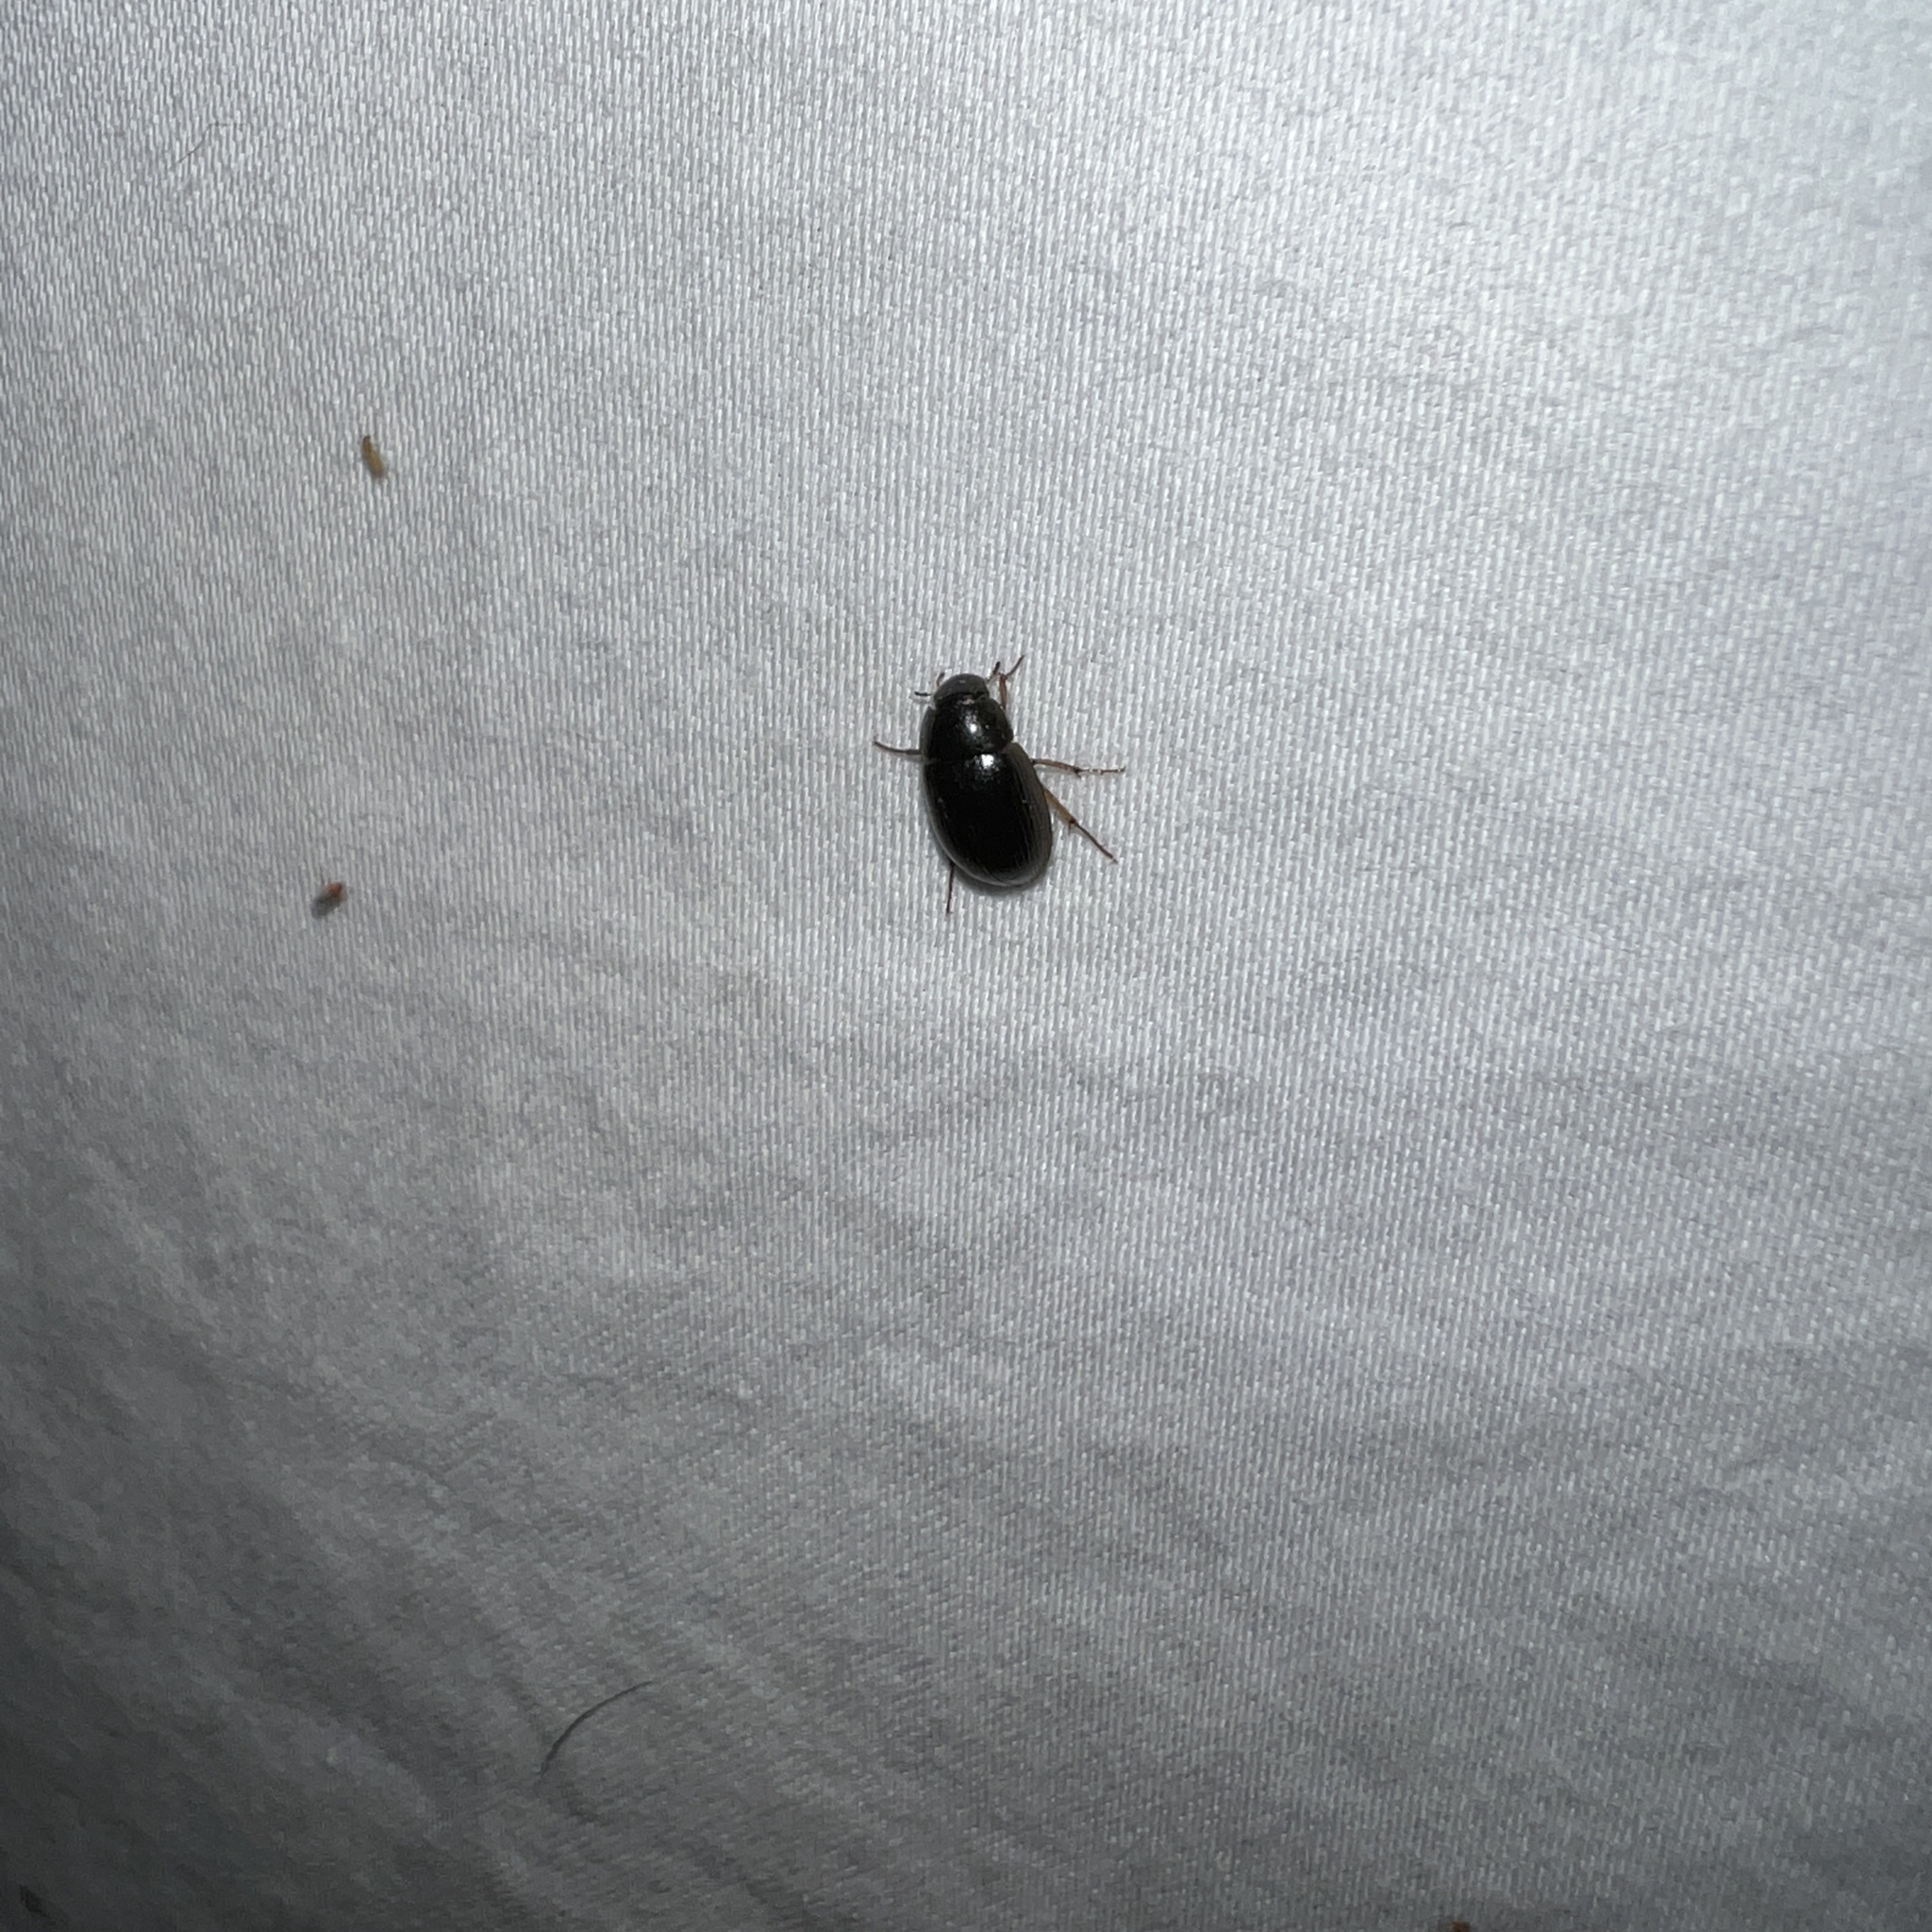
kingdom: Animalia
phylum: Arthropoda
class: Insecta
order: Coleoptera
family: Hydrophilidae
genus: Hydrobius
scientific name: Hydrobius fuscipes
